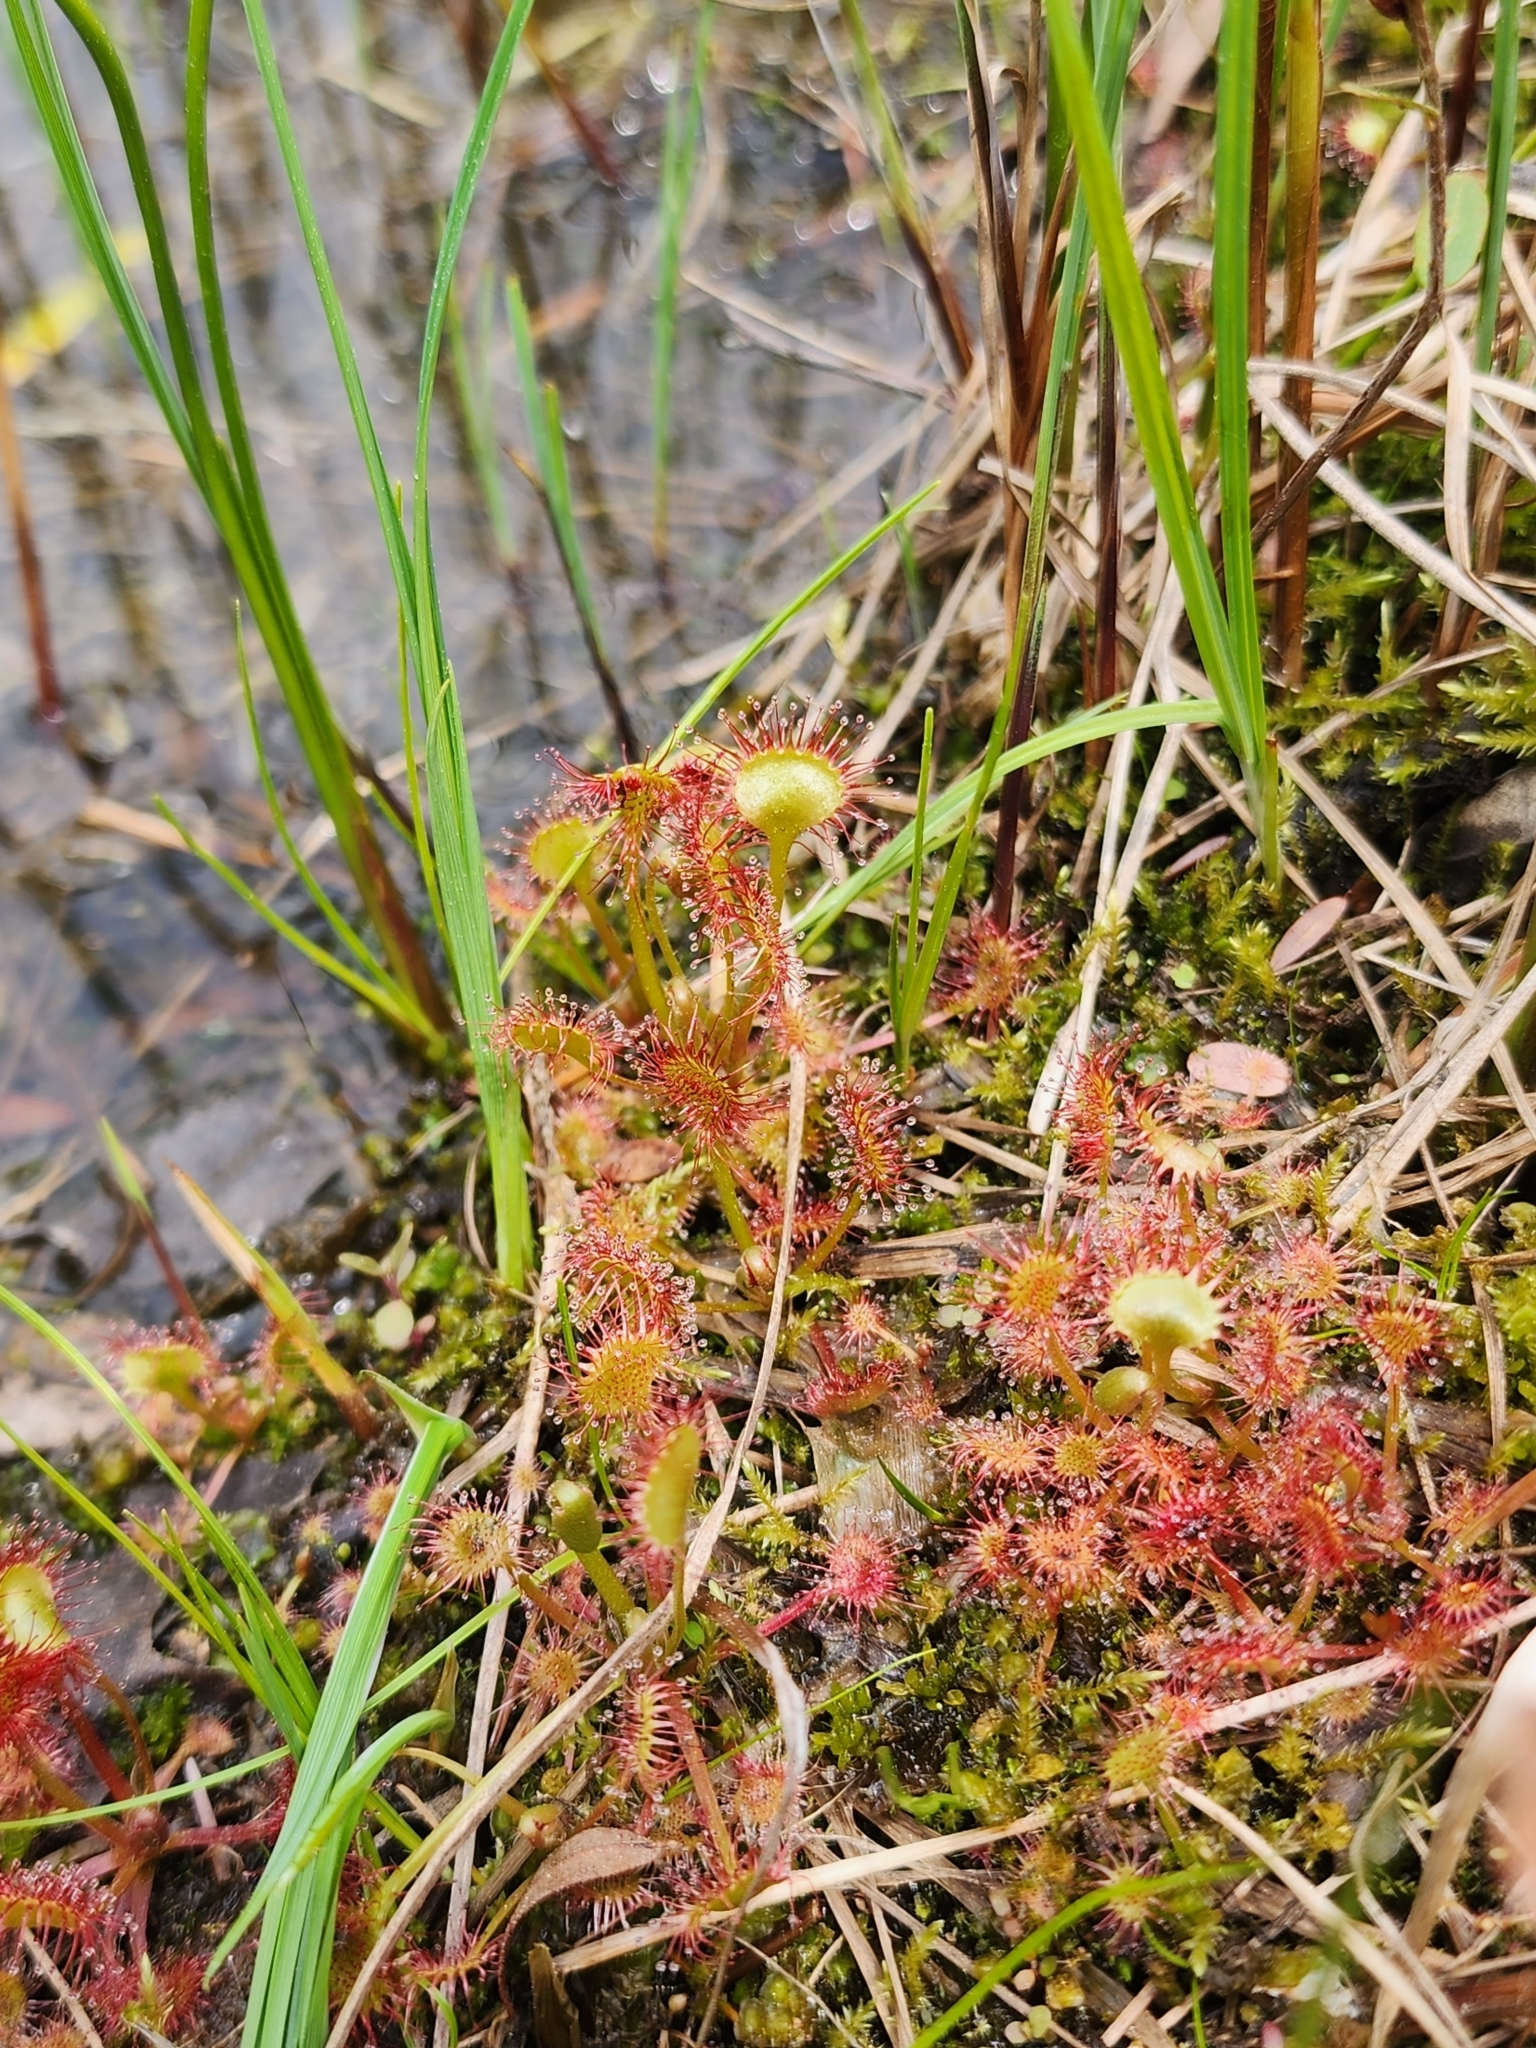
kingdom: Plantae
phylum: Tracheophyta
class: Magnoliopsida
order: Caryophyllales
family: Droseraceae
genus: Drosera
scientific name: Drosera rotundifolia
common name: Round-leaved sundew
